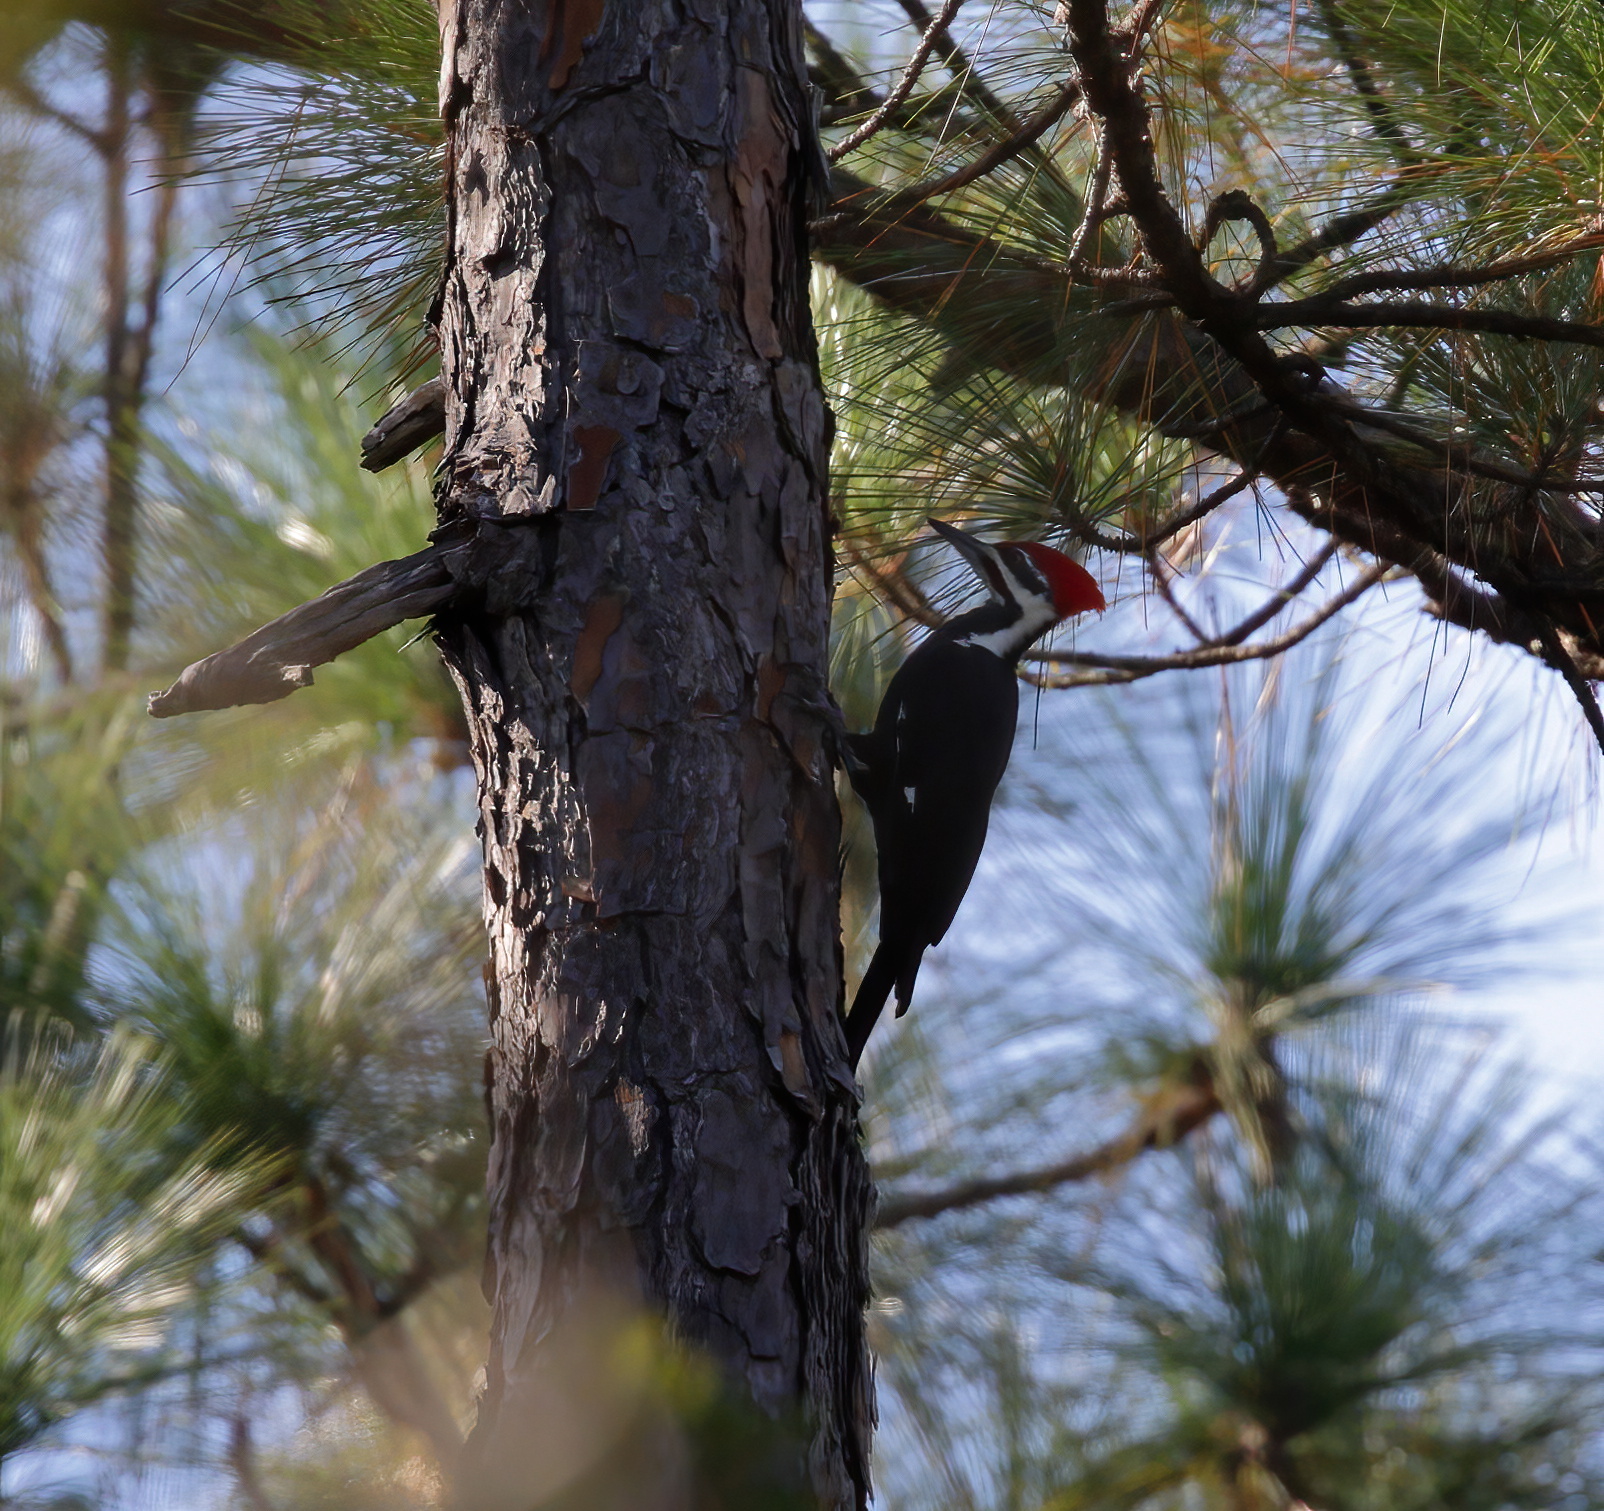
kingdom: Animalia
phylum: Chordata
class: Aves
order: Piciformes
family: Picidae
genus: Dryocopus
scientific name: Dryocopus pileatus
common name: Pileated woodpecker
